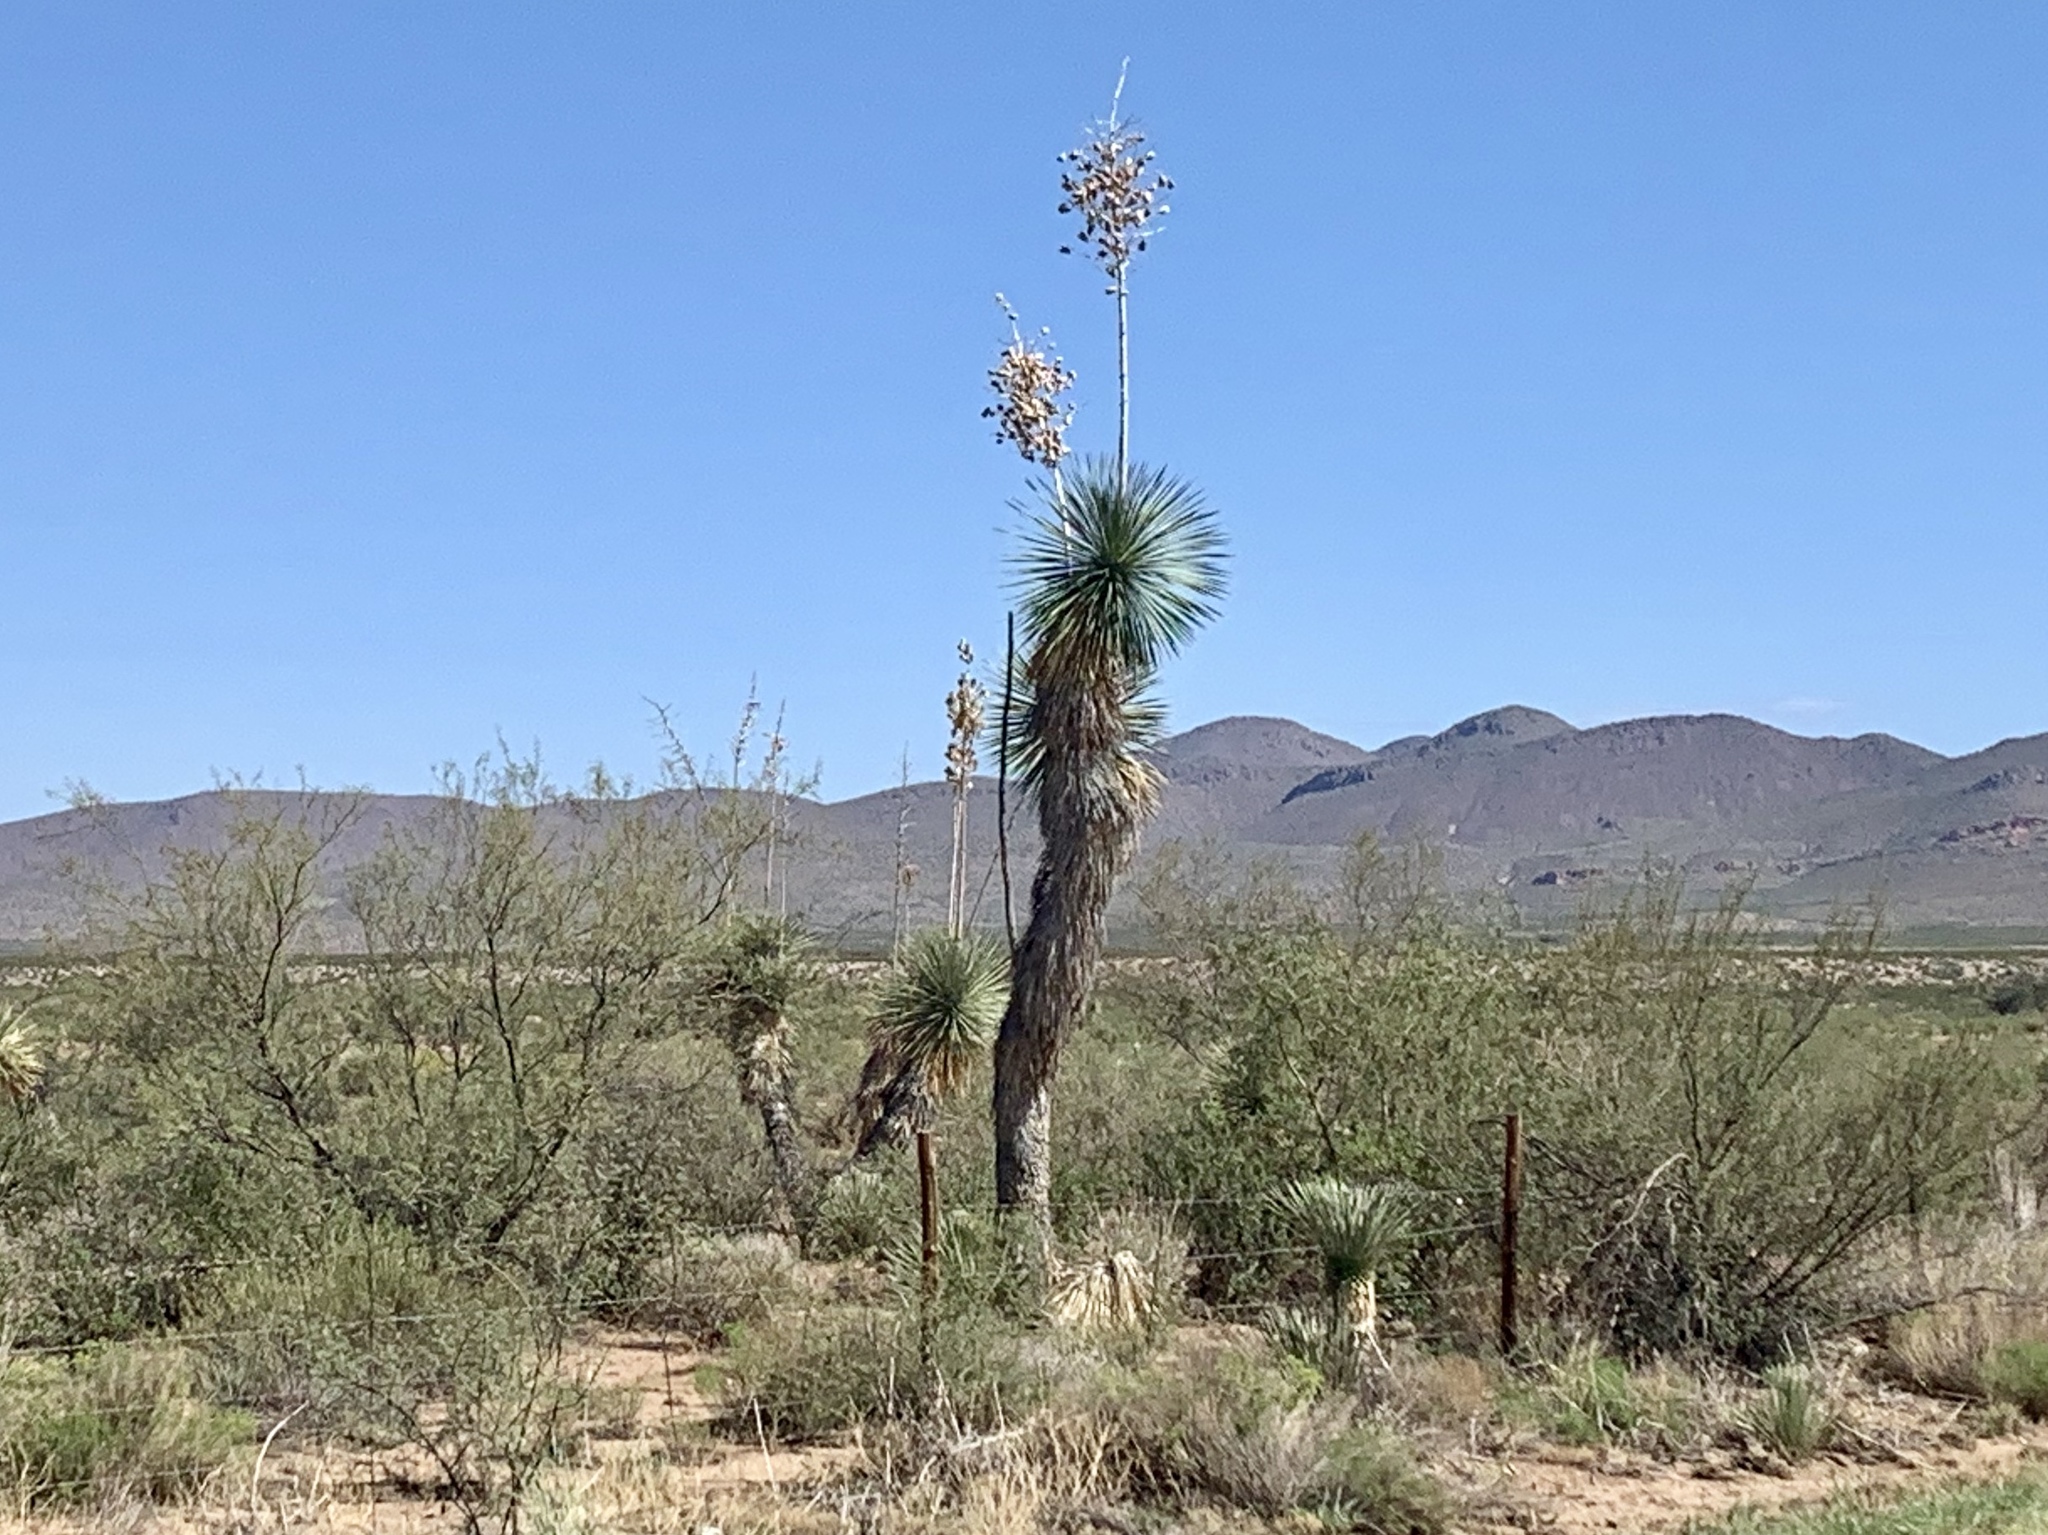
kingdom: Plantae
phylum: Tracheophyta
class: Liliopsida
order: Asparagales
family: Asparagaceae
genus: Yucca
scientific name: Yucca elata
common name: Palmella
